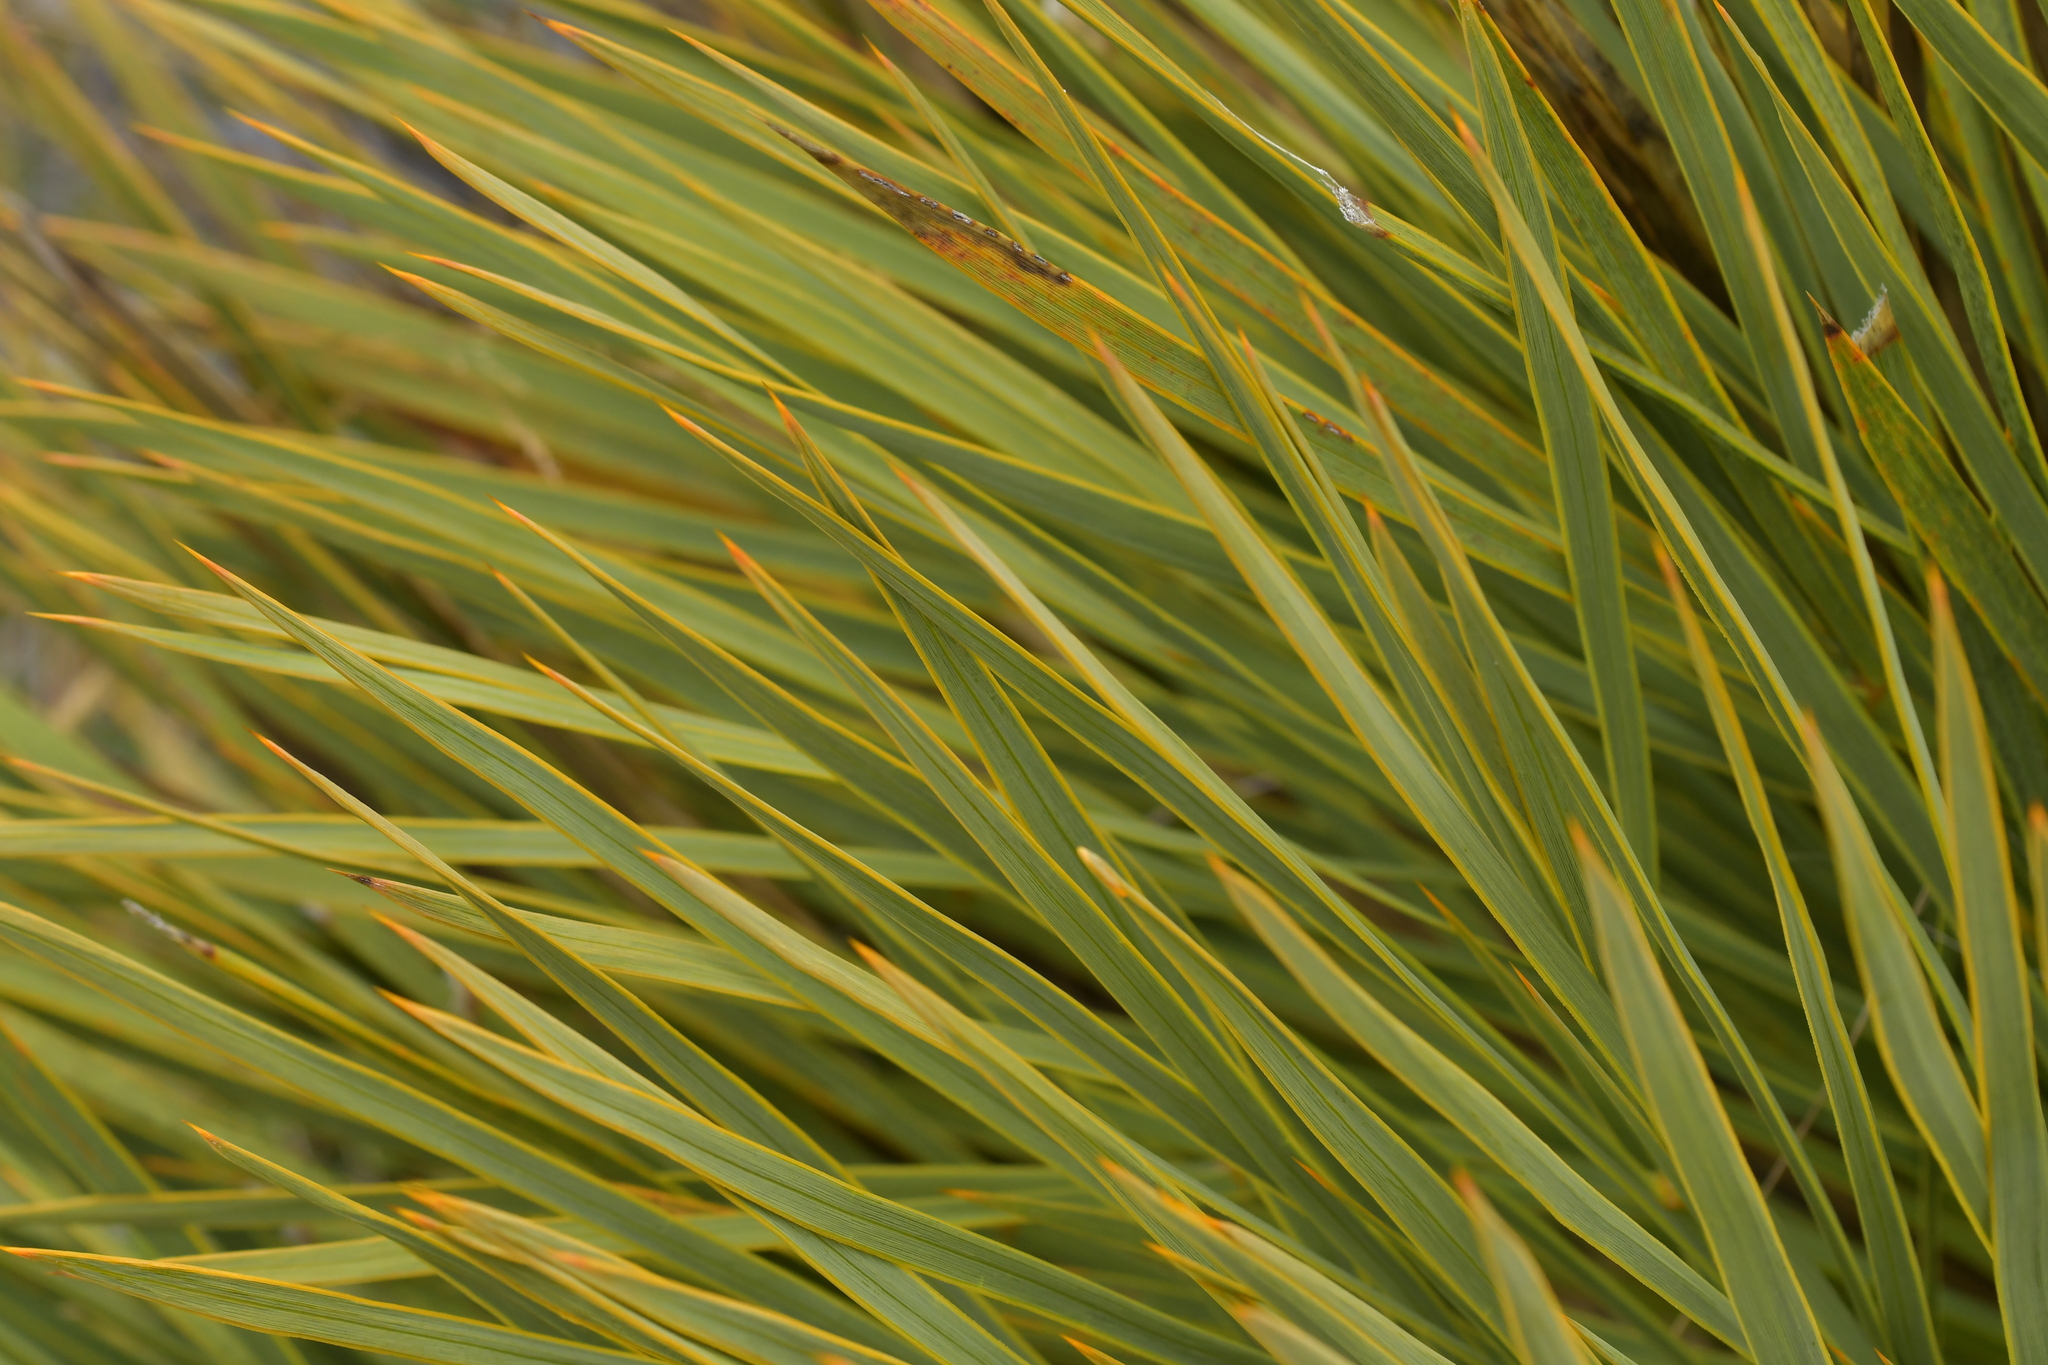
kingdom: Plantae
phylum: Tracheophyta
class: Magnoliopsida
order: Apiales
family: Apiaceae
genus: Aciphylla
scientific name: Aciphylla aurea
